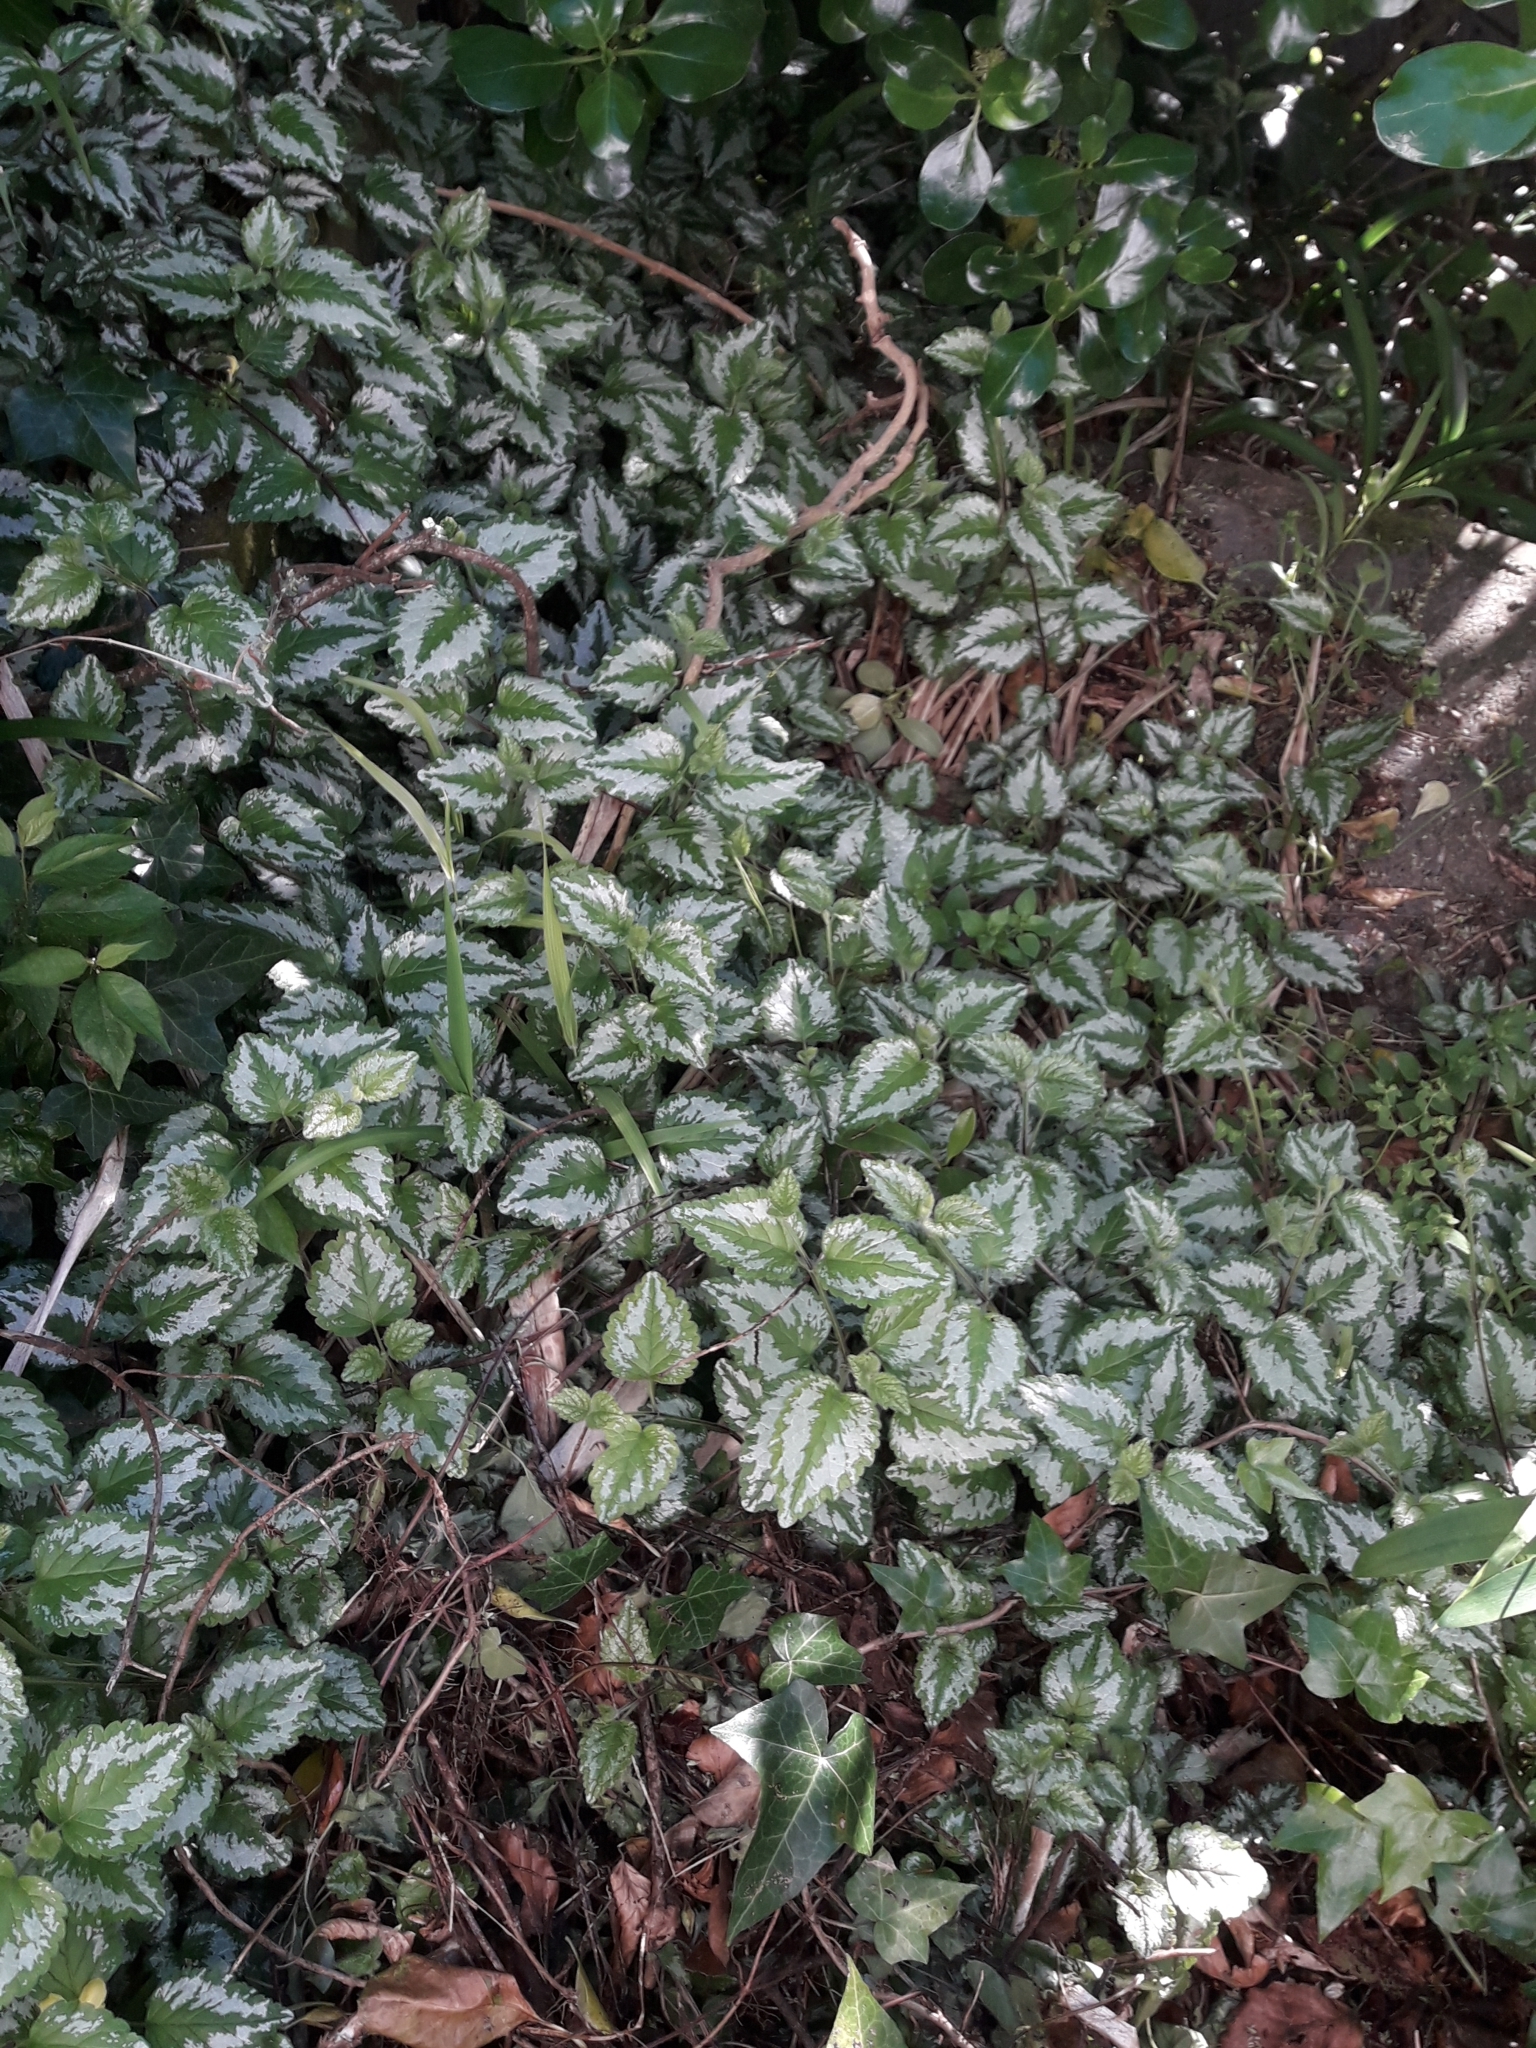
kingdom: Plantae
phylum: Tracheophyta
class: Magnoliopsida
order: Lamiales
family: Lamiaceae
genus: Lamium
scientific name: Lamium galeobdolon
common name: Yellow archangel
